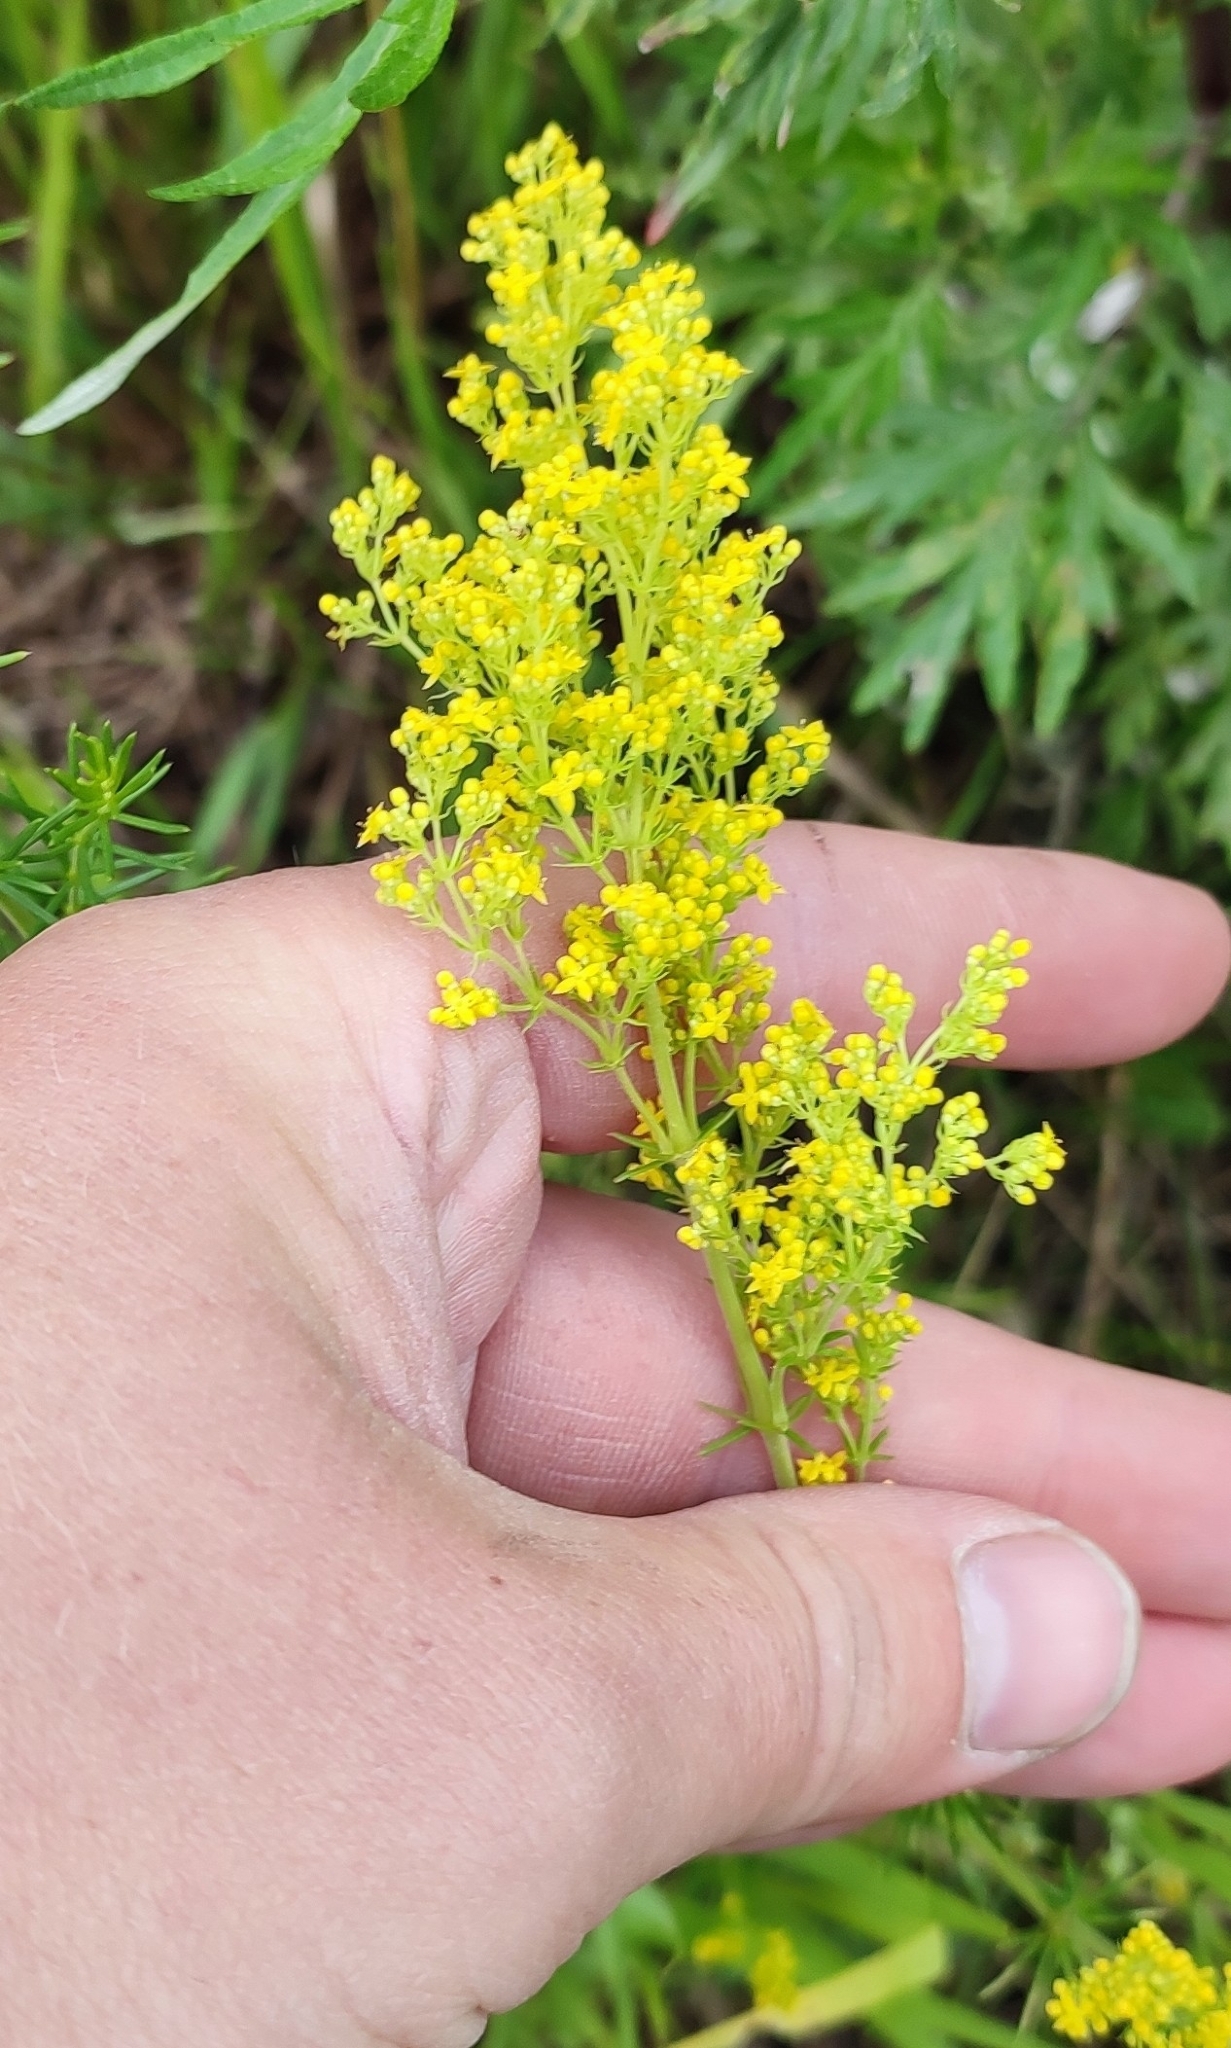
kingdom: Plantae
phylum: Tracheophyta
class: Magnoliopsida
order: Gentianales
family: Rubiaceae
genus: Galium
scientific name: Galium verum
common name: Lady's bedstraw
